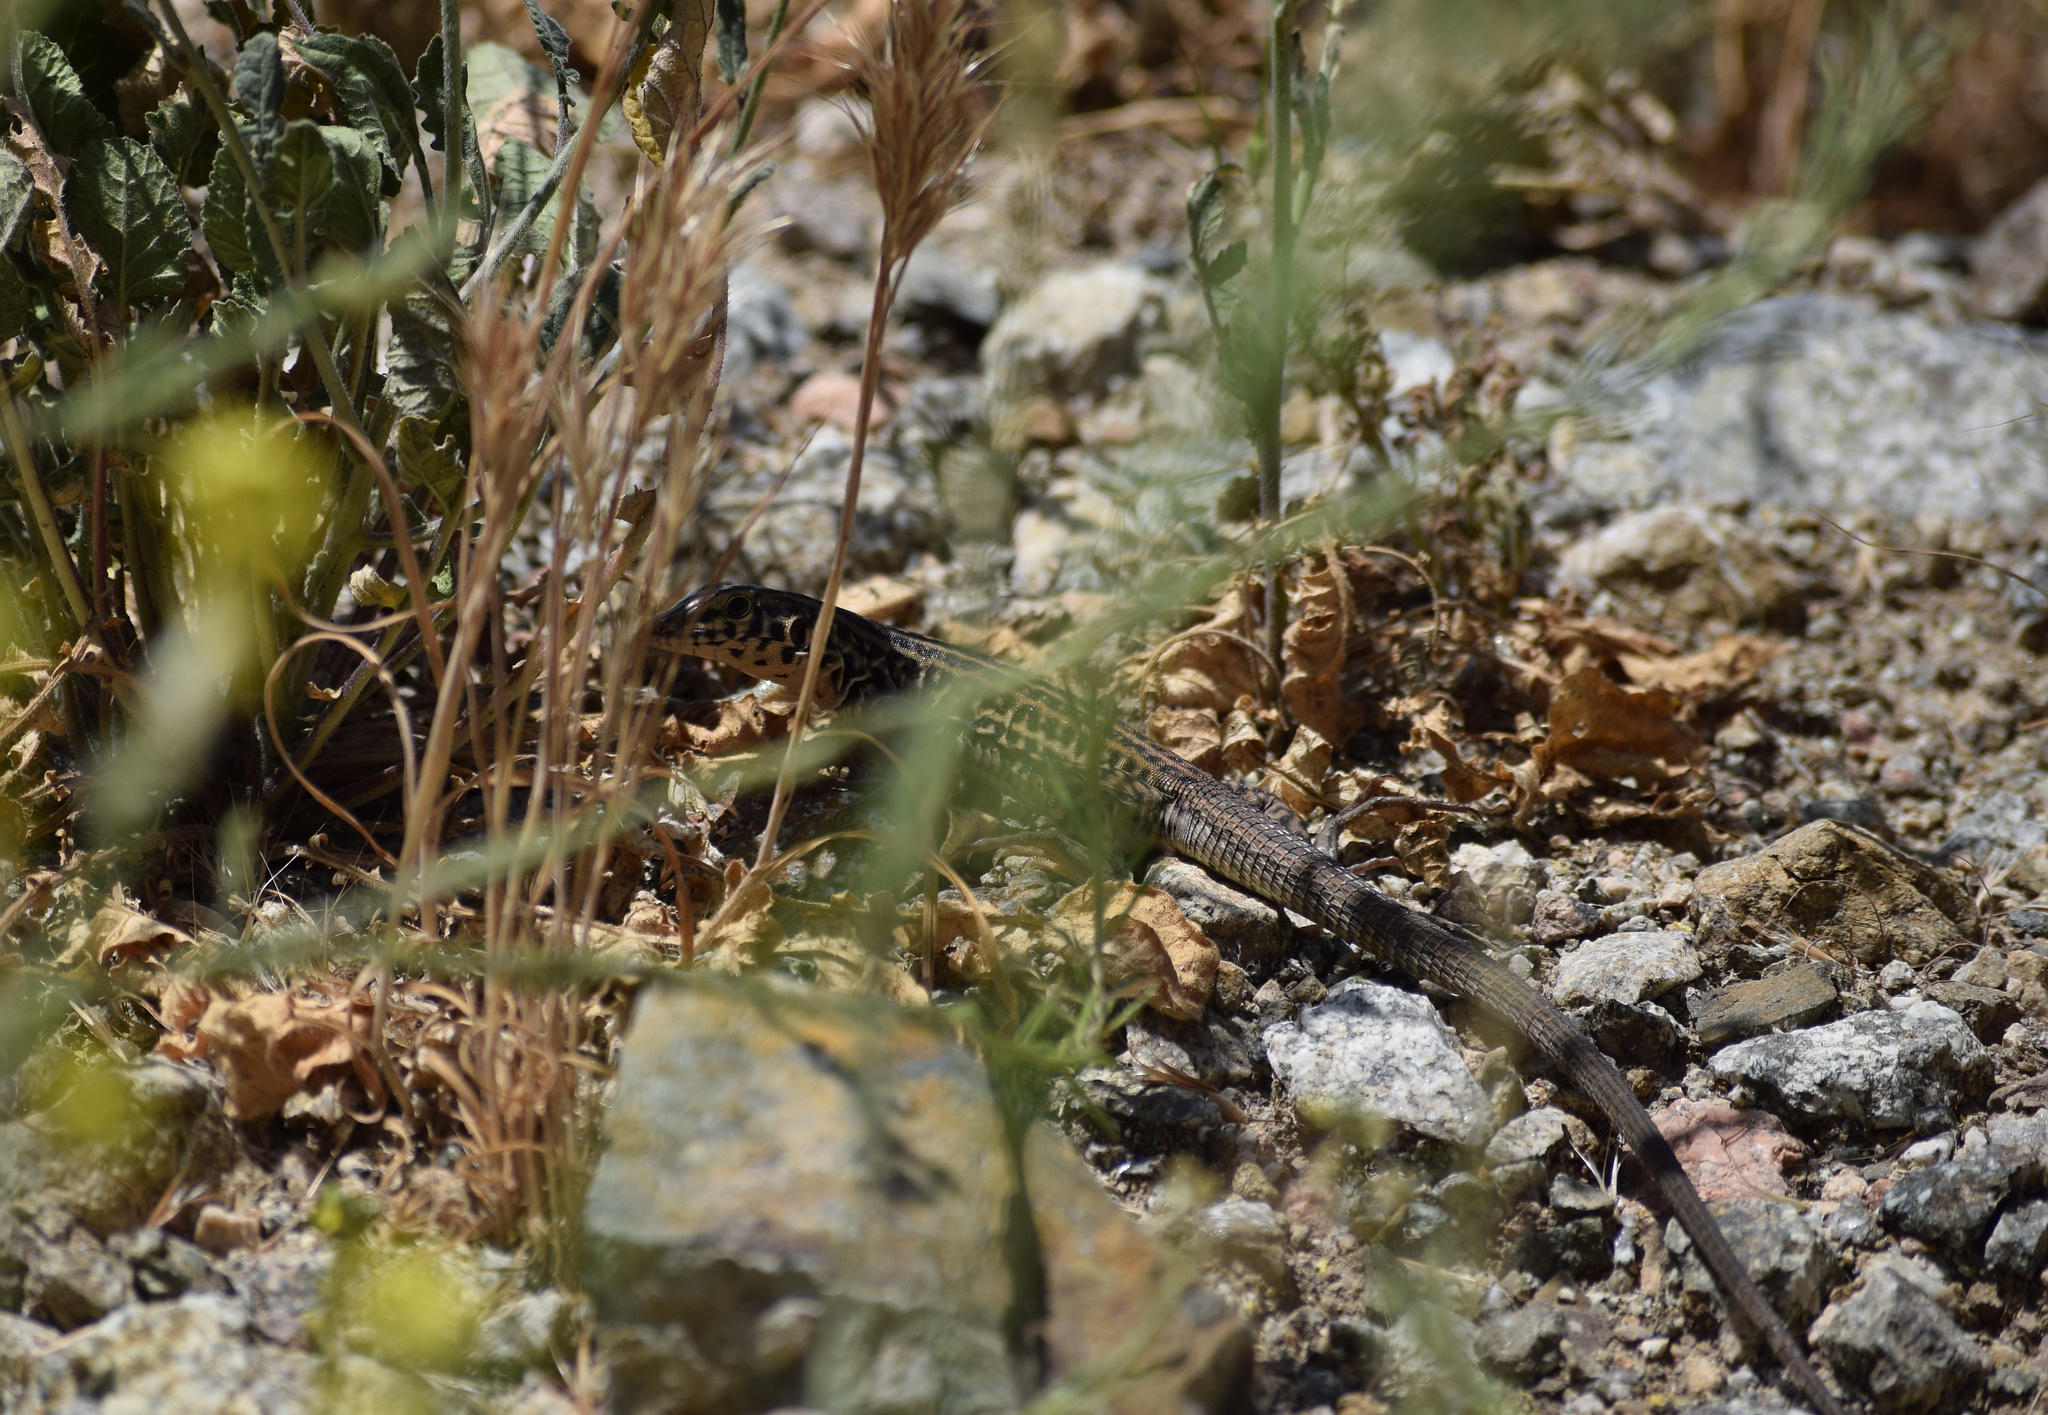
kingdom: Animalia
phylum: Chordata
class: Squamata
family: Teiidae
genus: Aspidoscelis
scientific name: Aspidoscelis tigris
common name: Tiger whiptail
